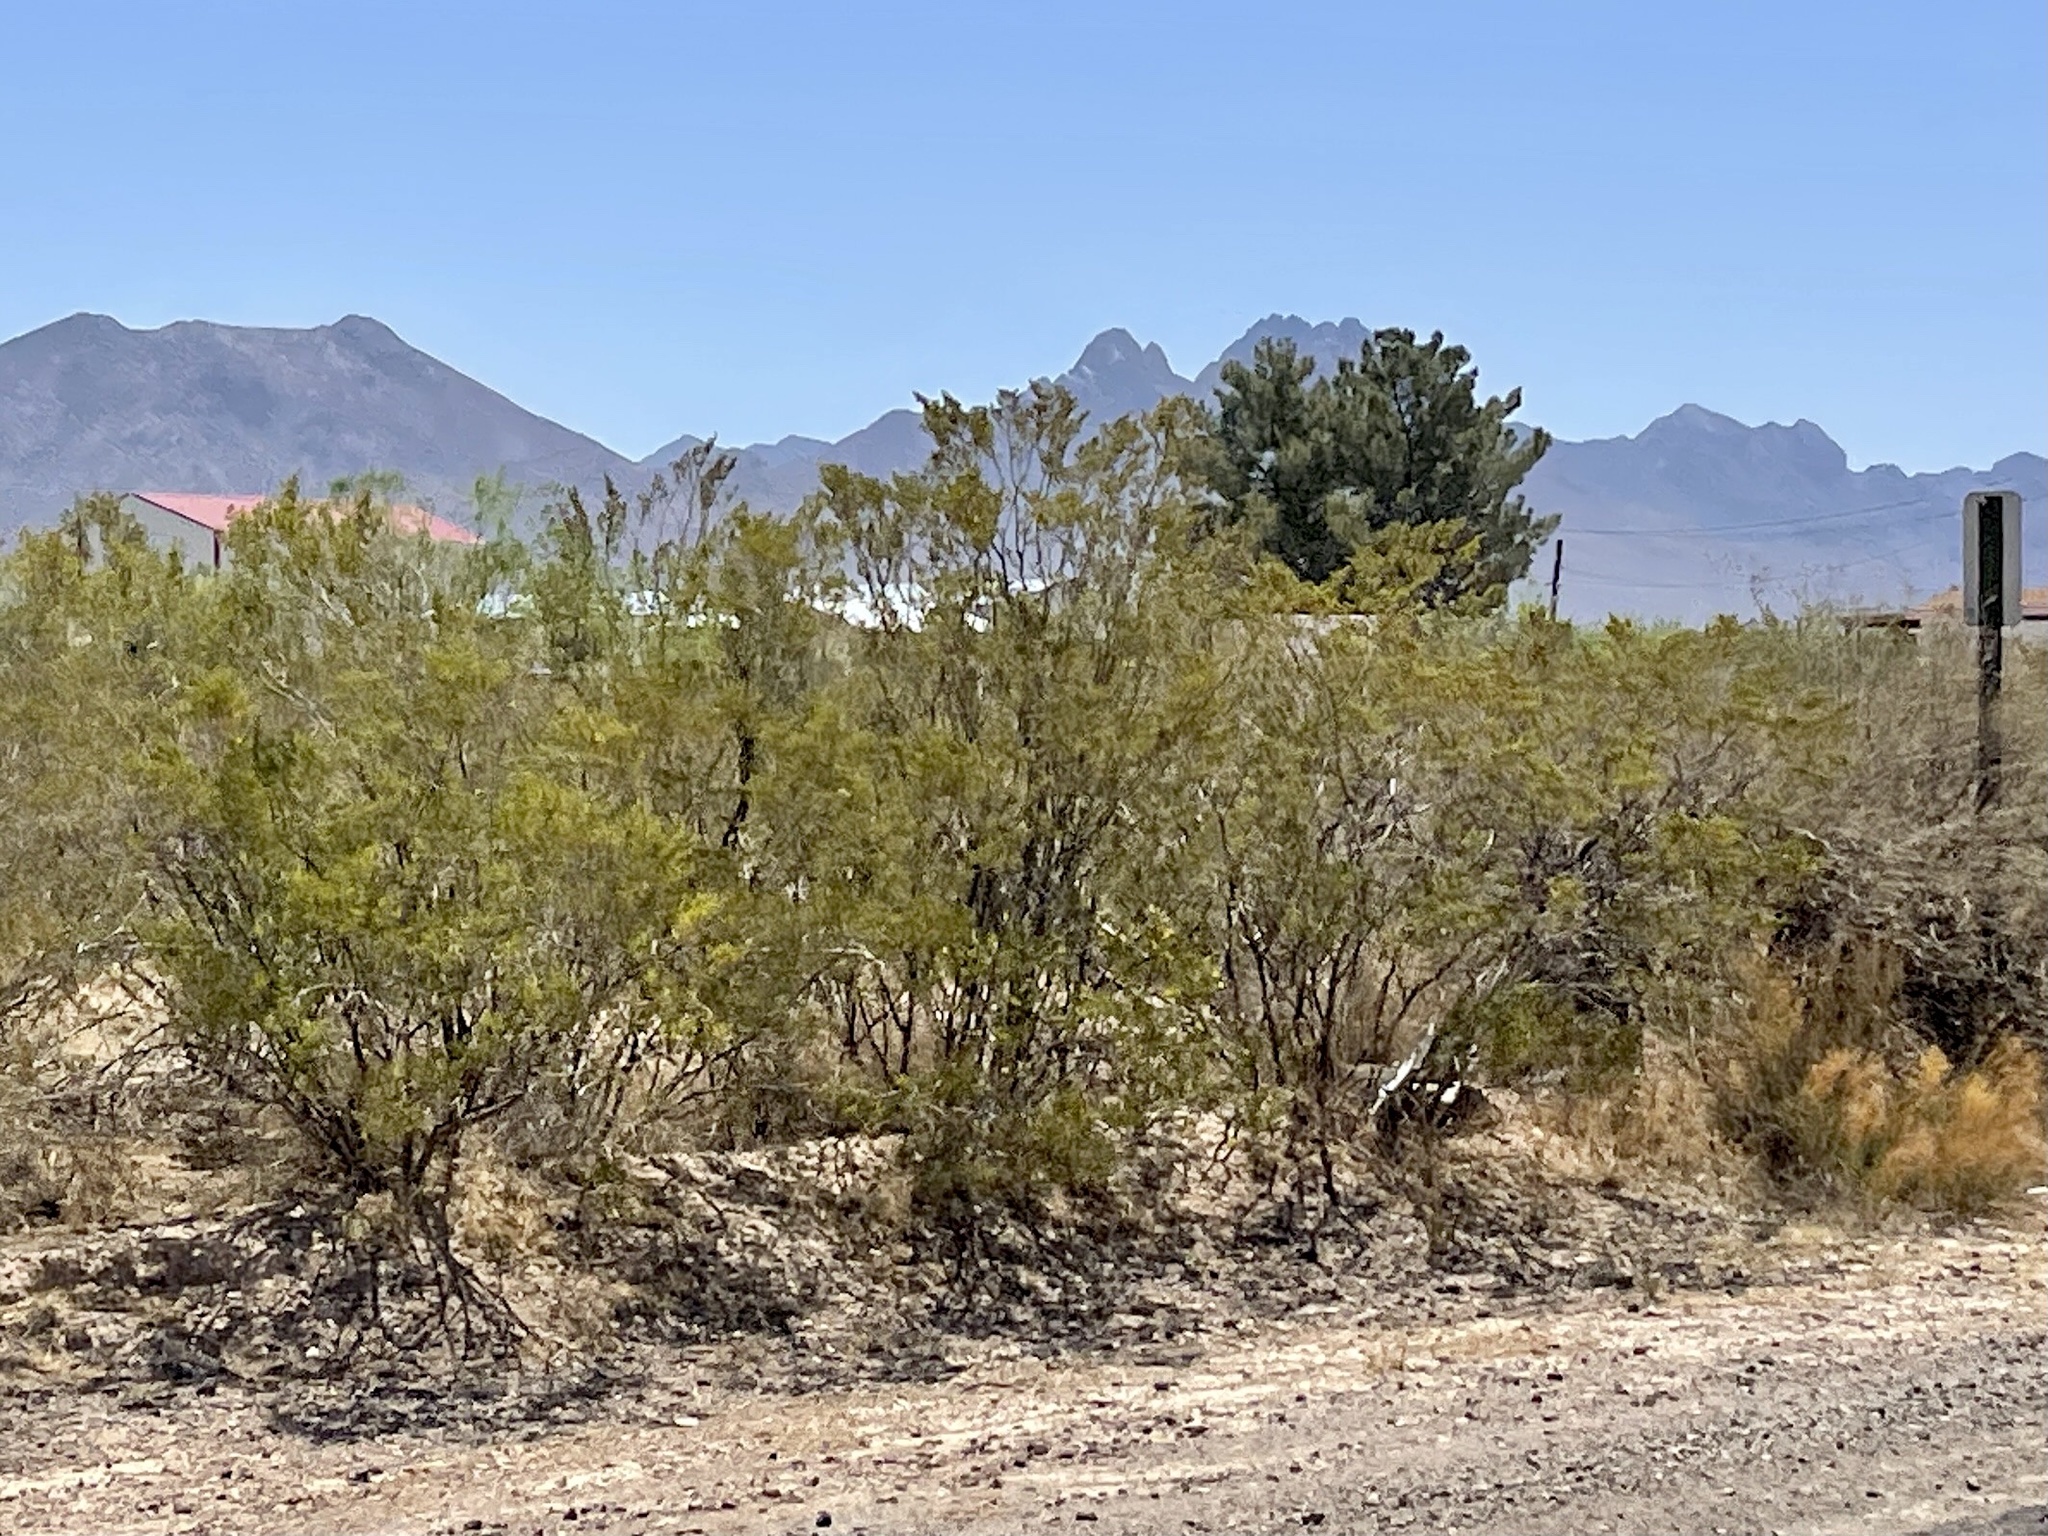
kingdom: Plantae
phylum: Tracheophyta
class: Magnoliopsida
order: Zygophyllales
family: Zygophyllaceae
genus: Larrea
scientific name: Larrea tridentata
